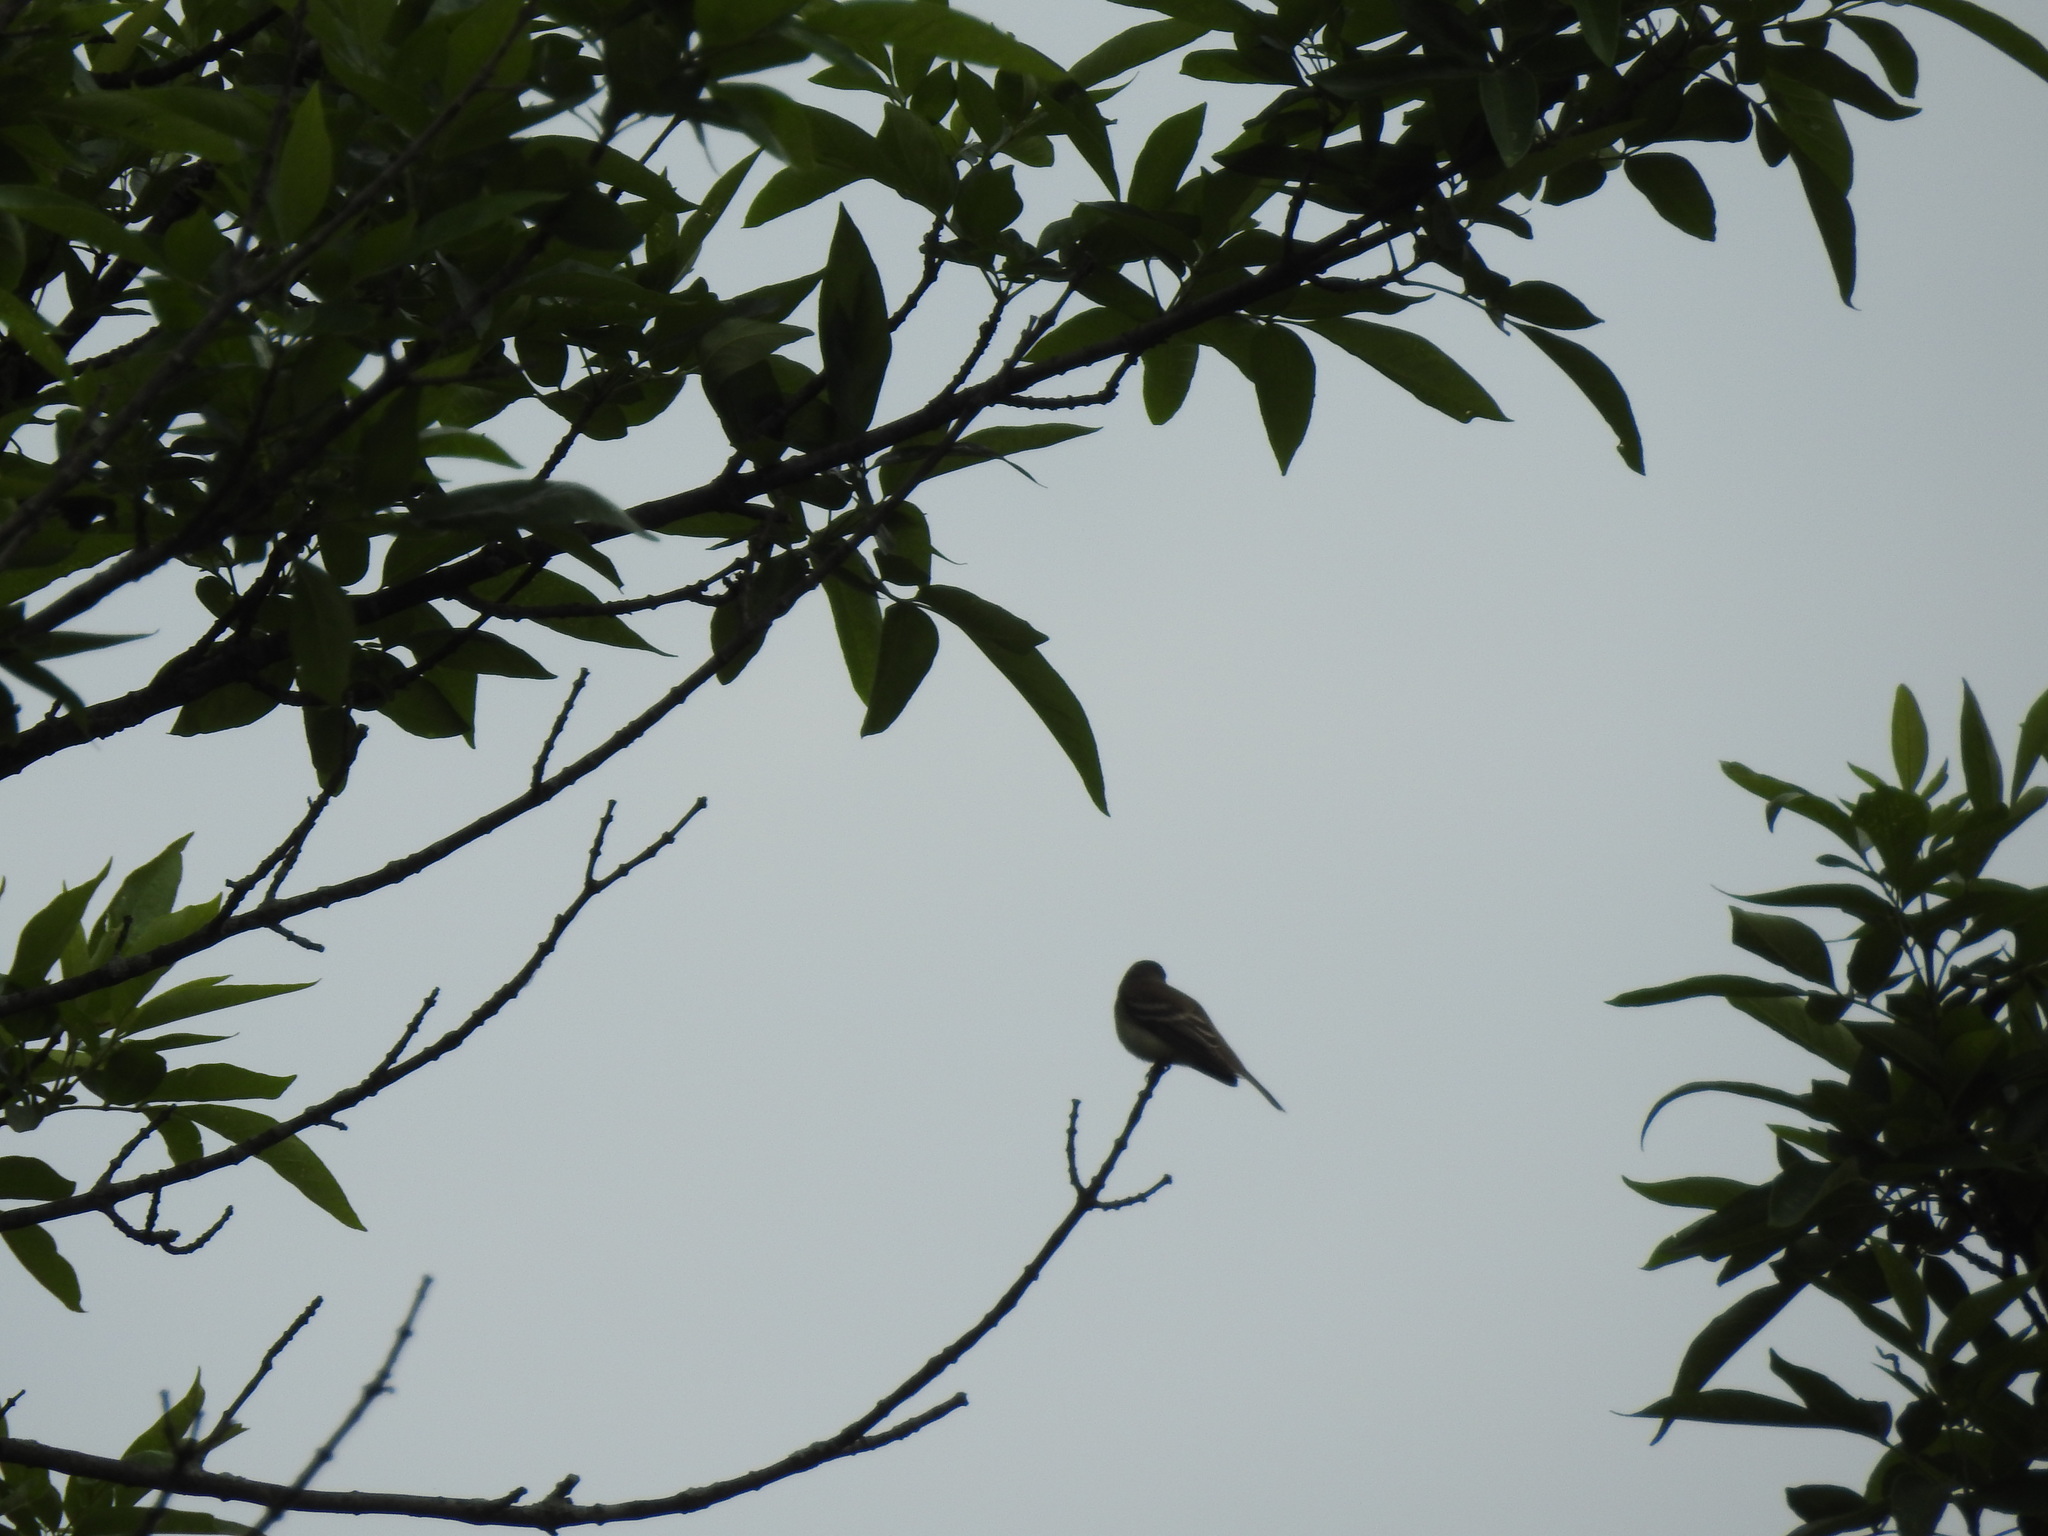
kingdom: Animalia
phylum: Chordata
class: Aves
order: Passeriformes
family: Tyrannidae
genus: Empidonax
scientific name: Empidonax traillii
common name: Willow flycatcher
